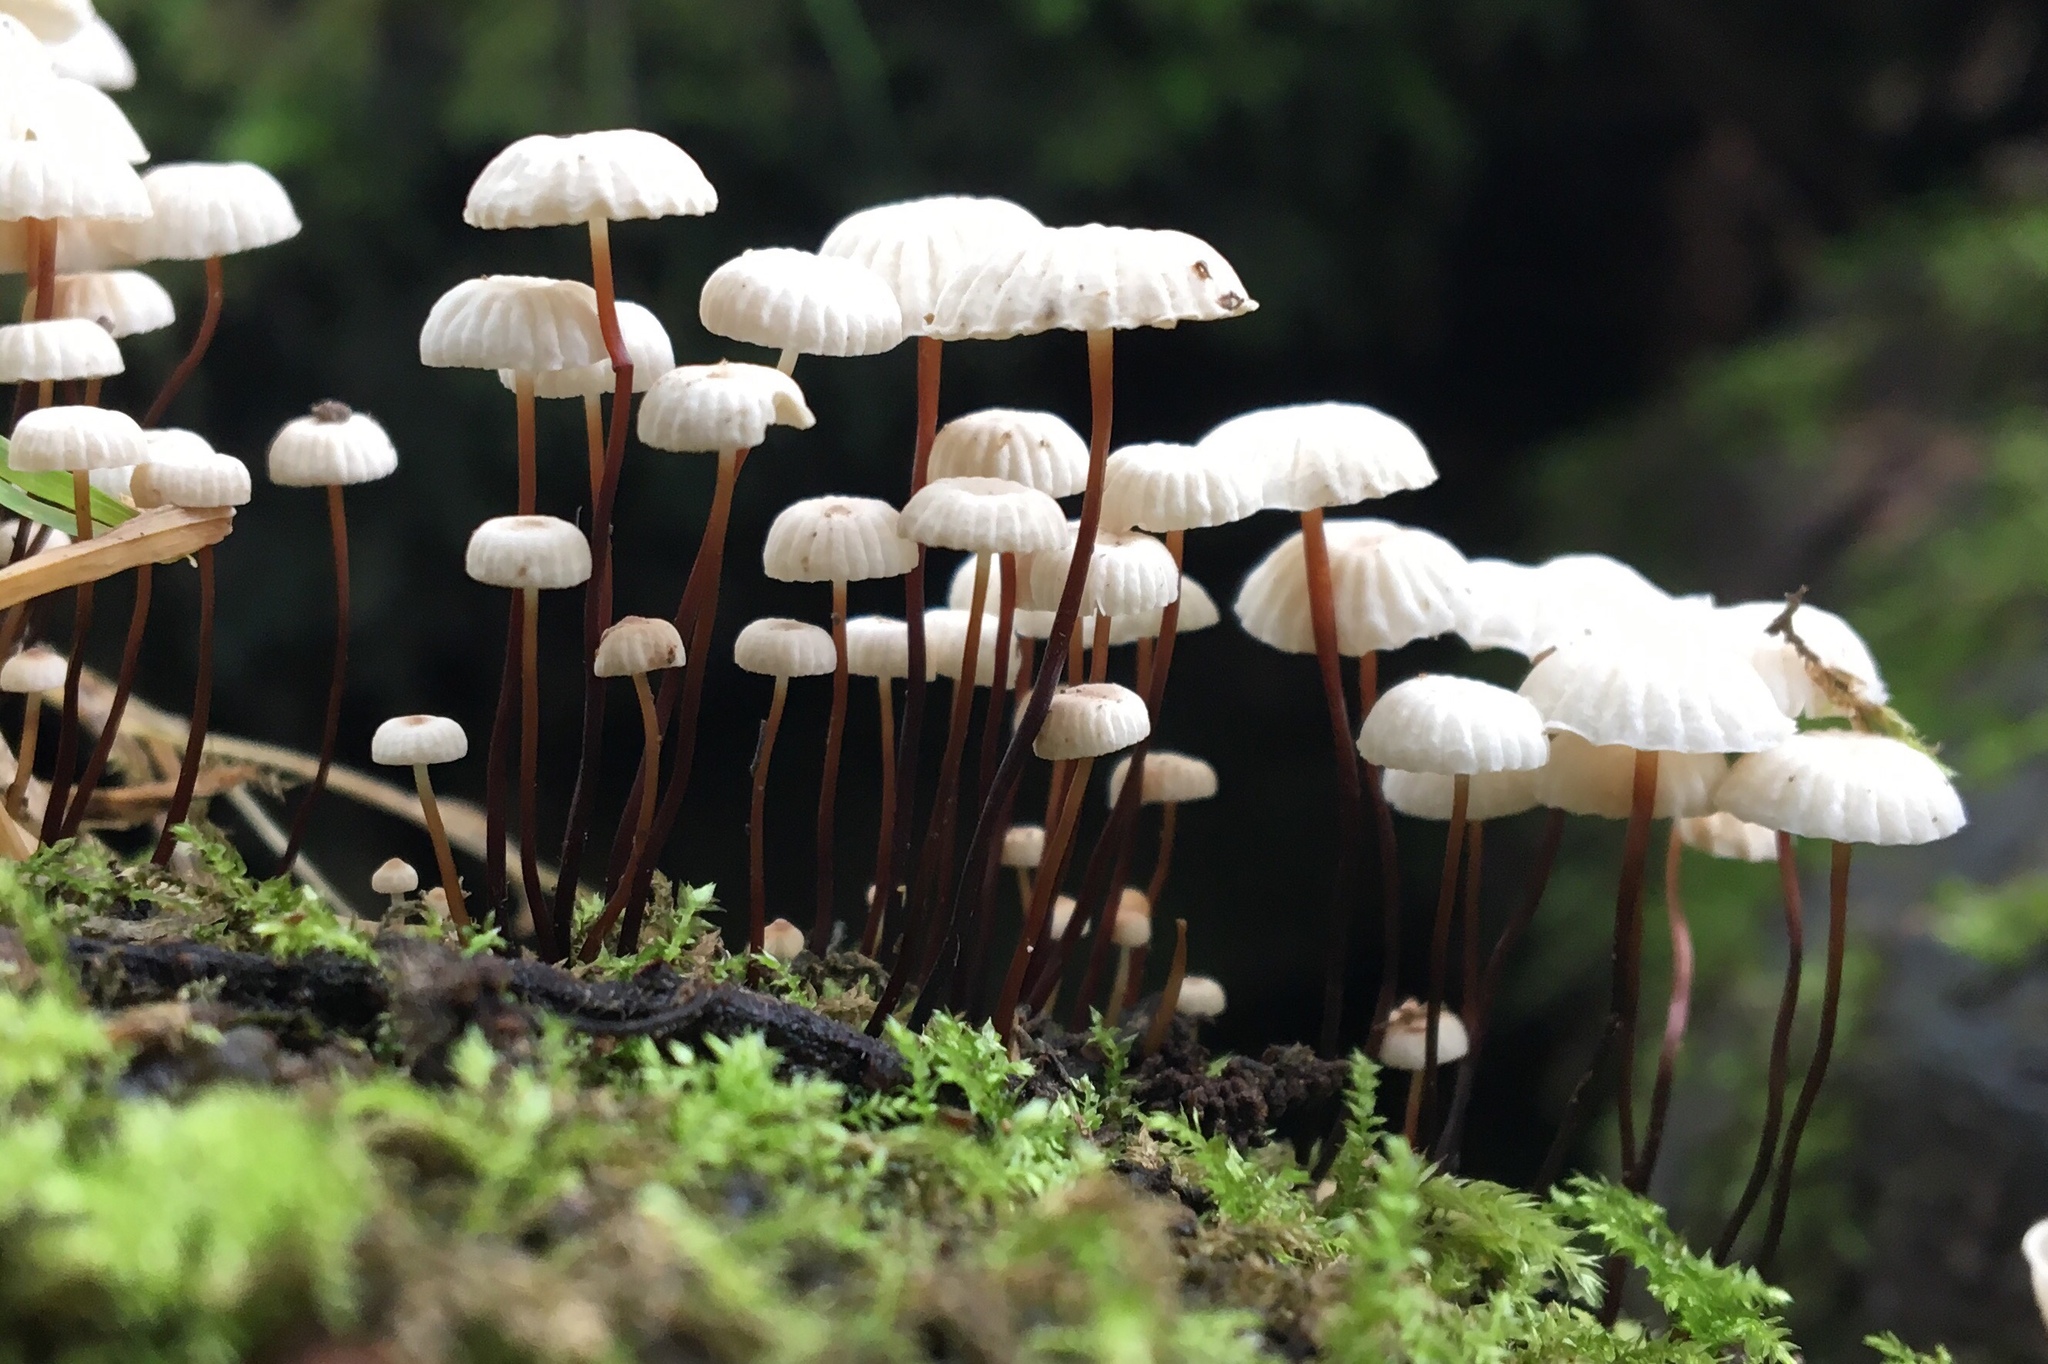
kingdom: Fungi
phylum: Basidiomycota
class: Agaricomycetes
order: Agaricales
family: Marasmiaceae
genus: Marasmius
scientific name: Marasmius rotula
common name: Collared parachute
